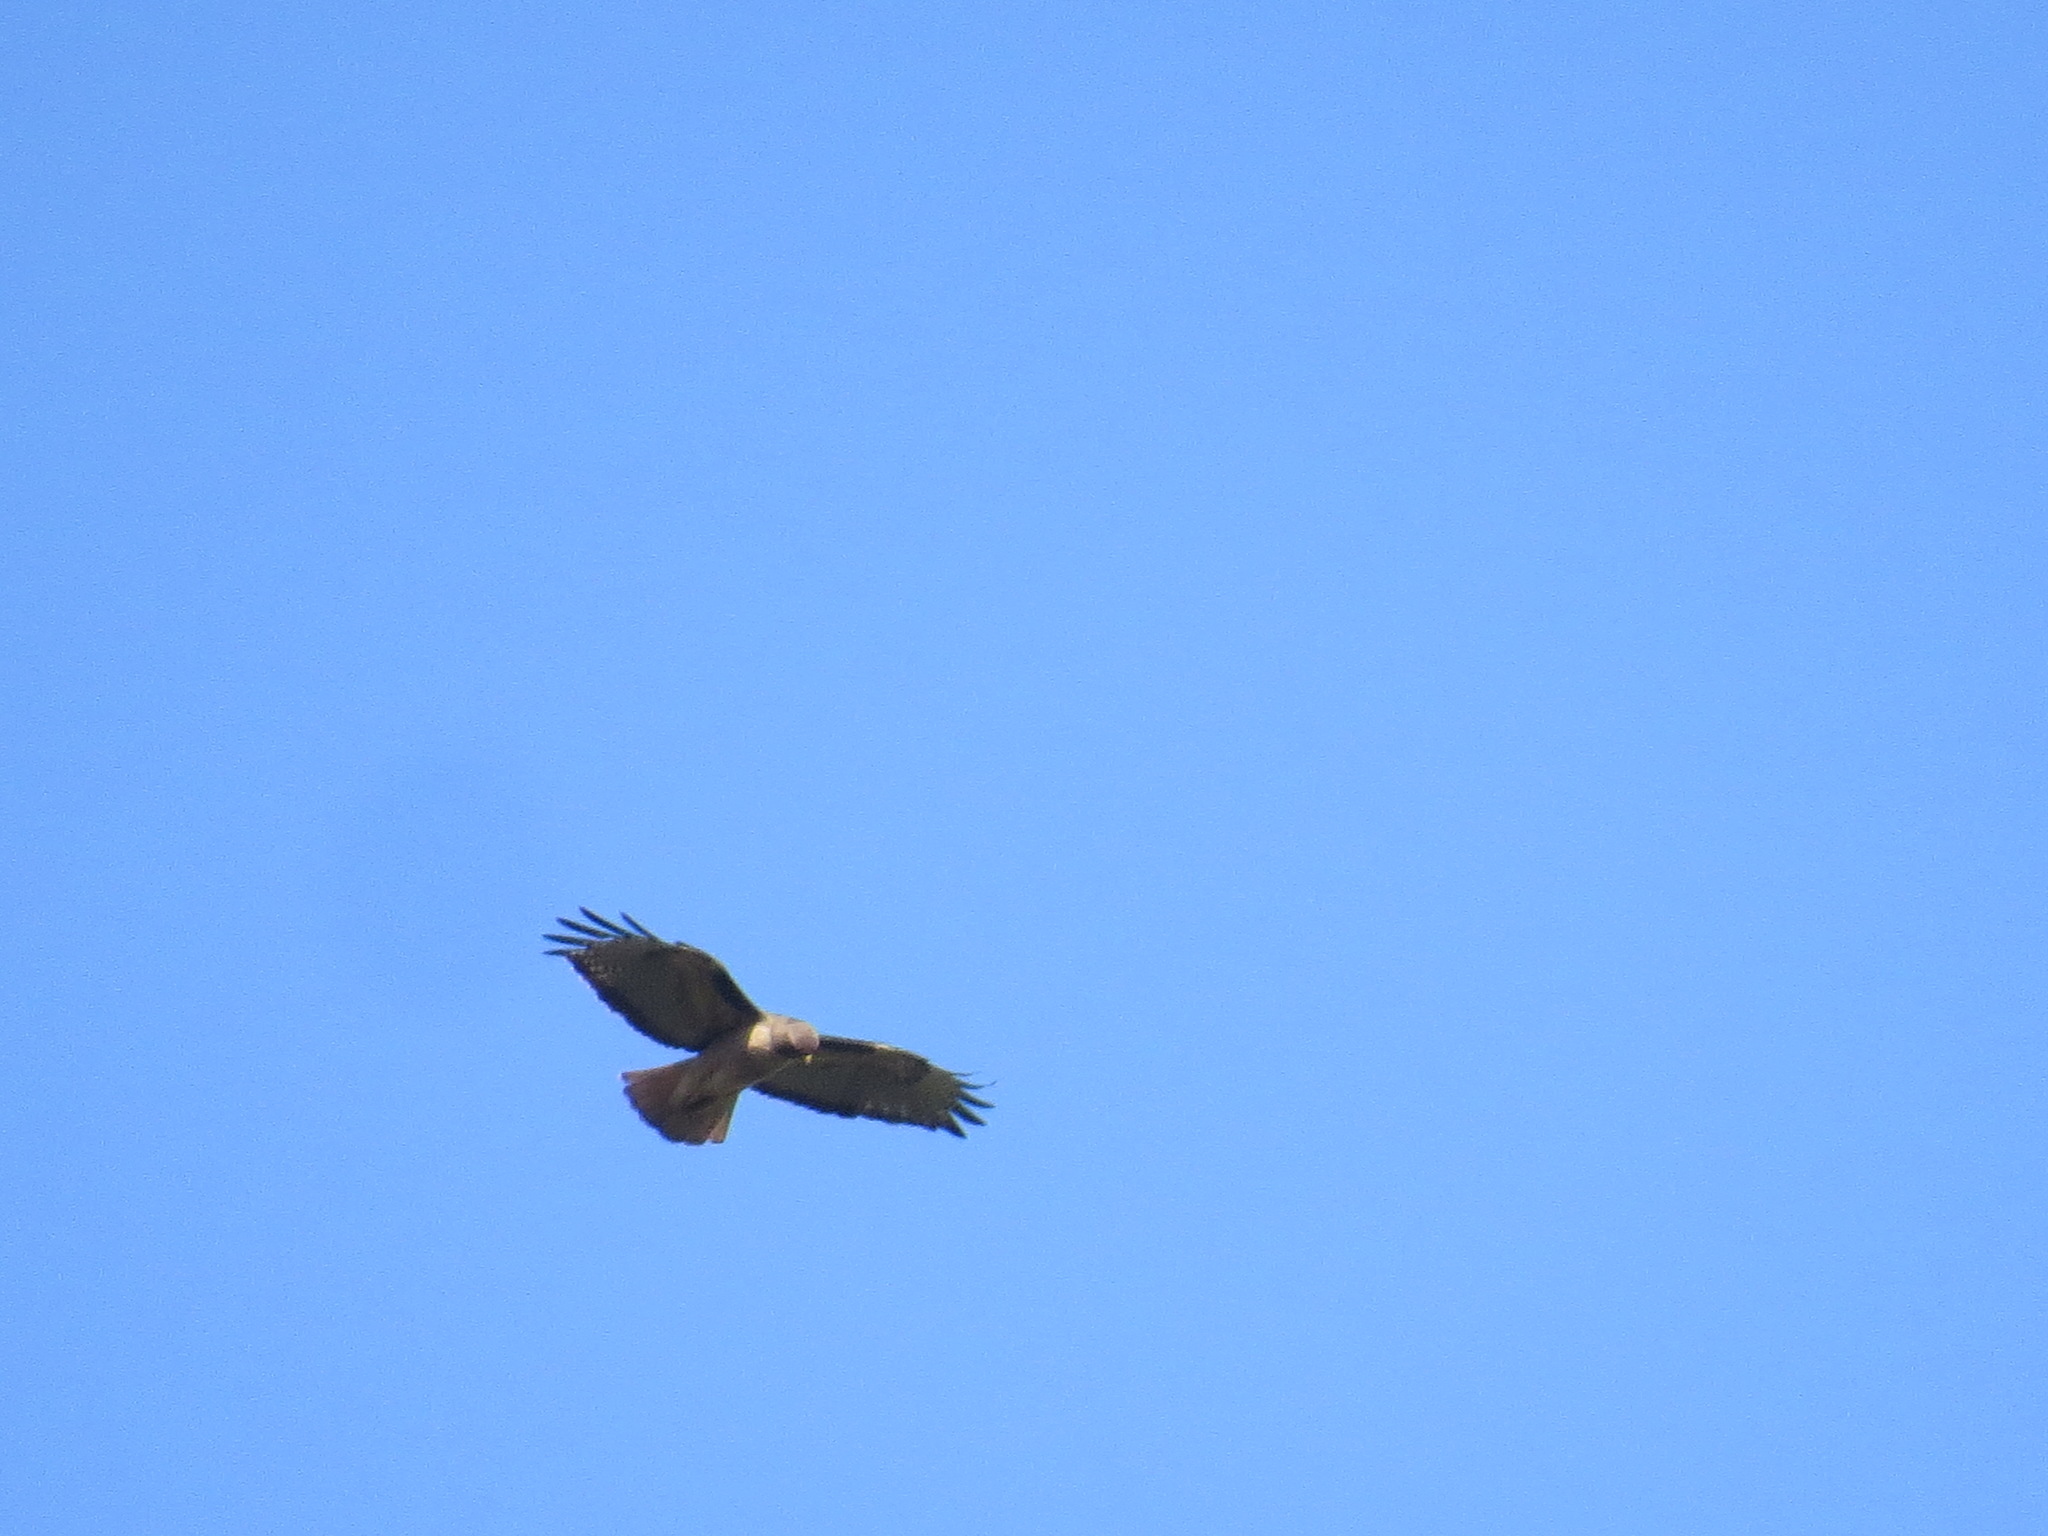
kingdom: Animalia
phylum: Chordata
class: Aves
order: Accipitriformes
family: Accipitridae
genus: Buteo
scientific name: Buteo jamaicensis
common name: Red-tailed hawk
